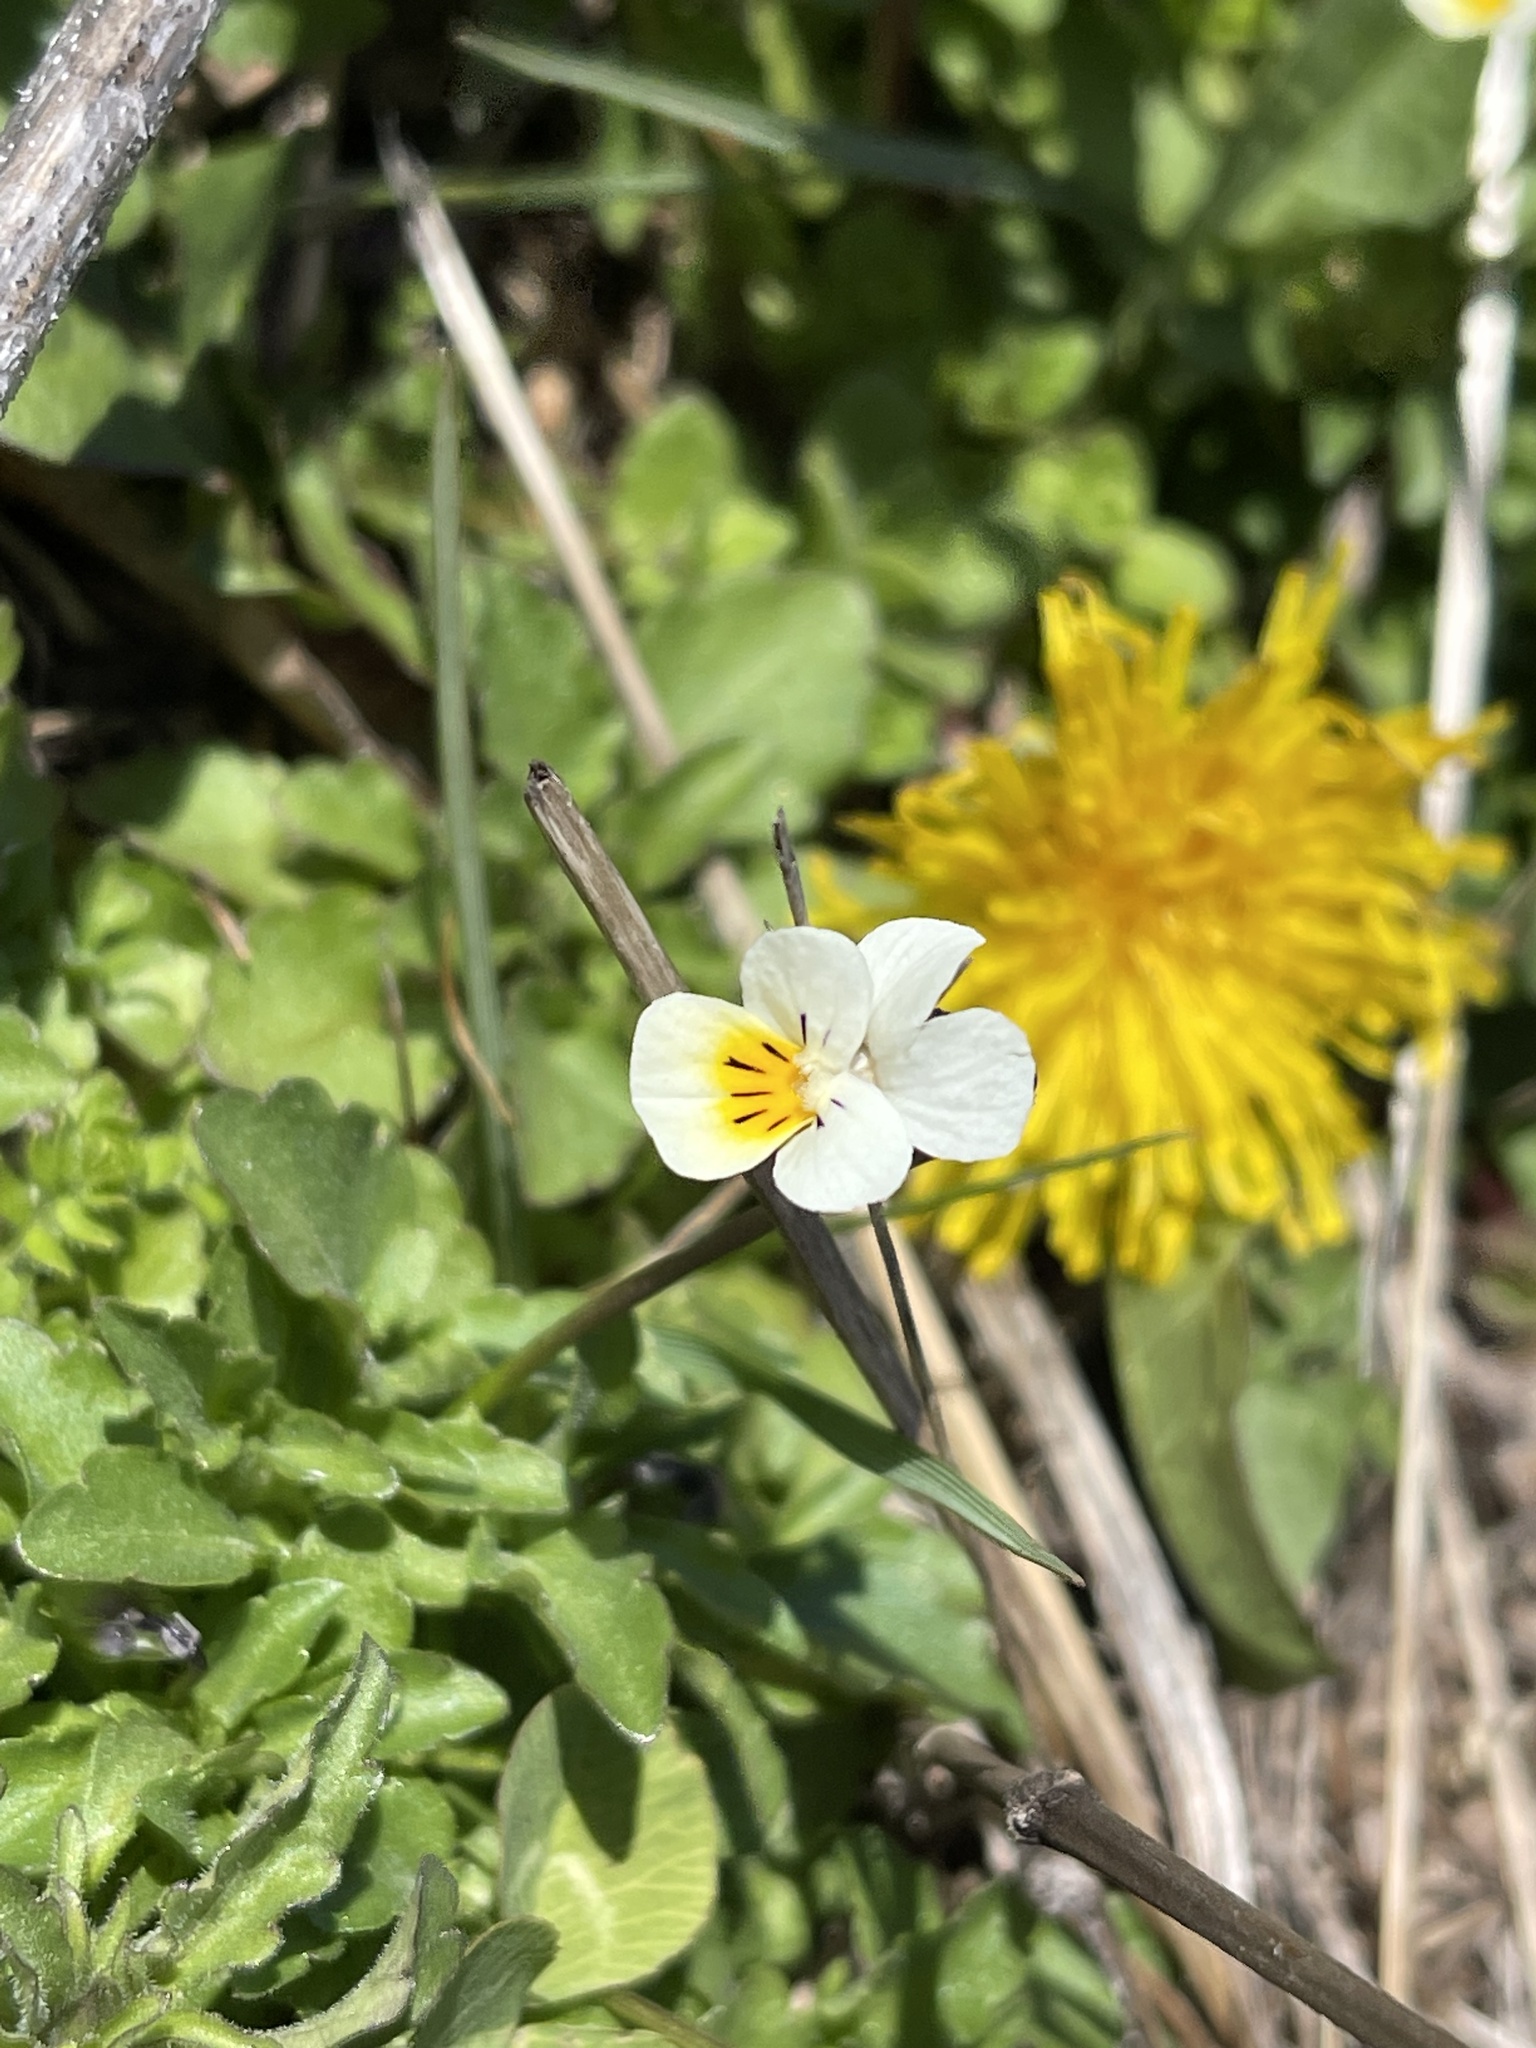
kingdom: Plantae
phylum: Tracheophyta
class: Magnoliopsida
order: Malpighiales
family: Violaceae
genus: Viola
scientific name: Viola arvensis
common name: Field pansy
